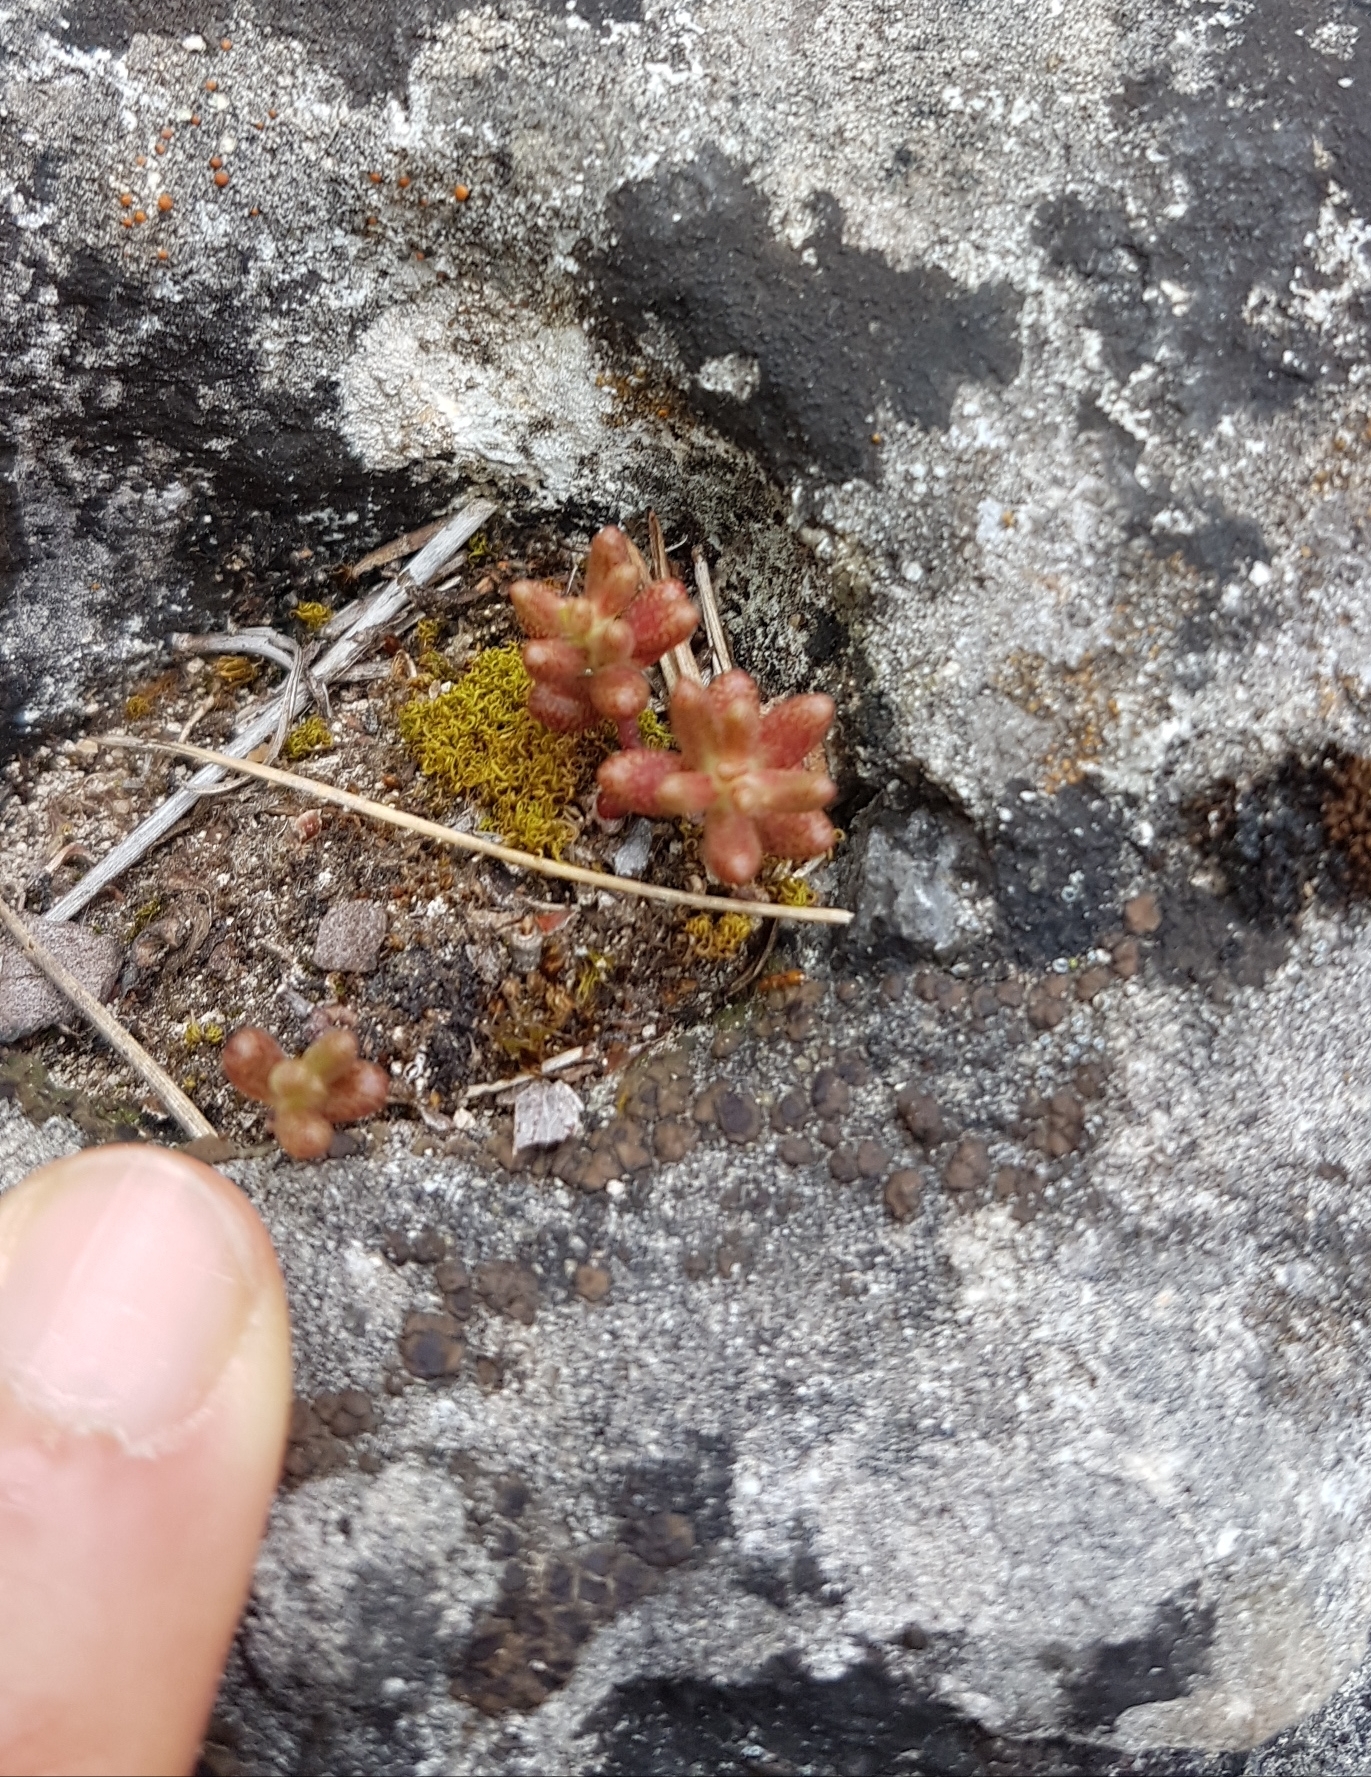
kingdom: Plantae
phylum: Tracheophyta
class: Magnoliopsida
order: Saxifragales
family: Crassulaceae
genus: Sedum
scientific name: Sedum album
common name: White stonecrop
